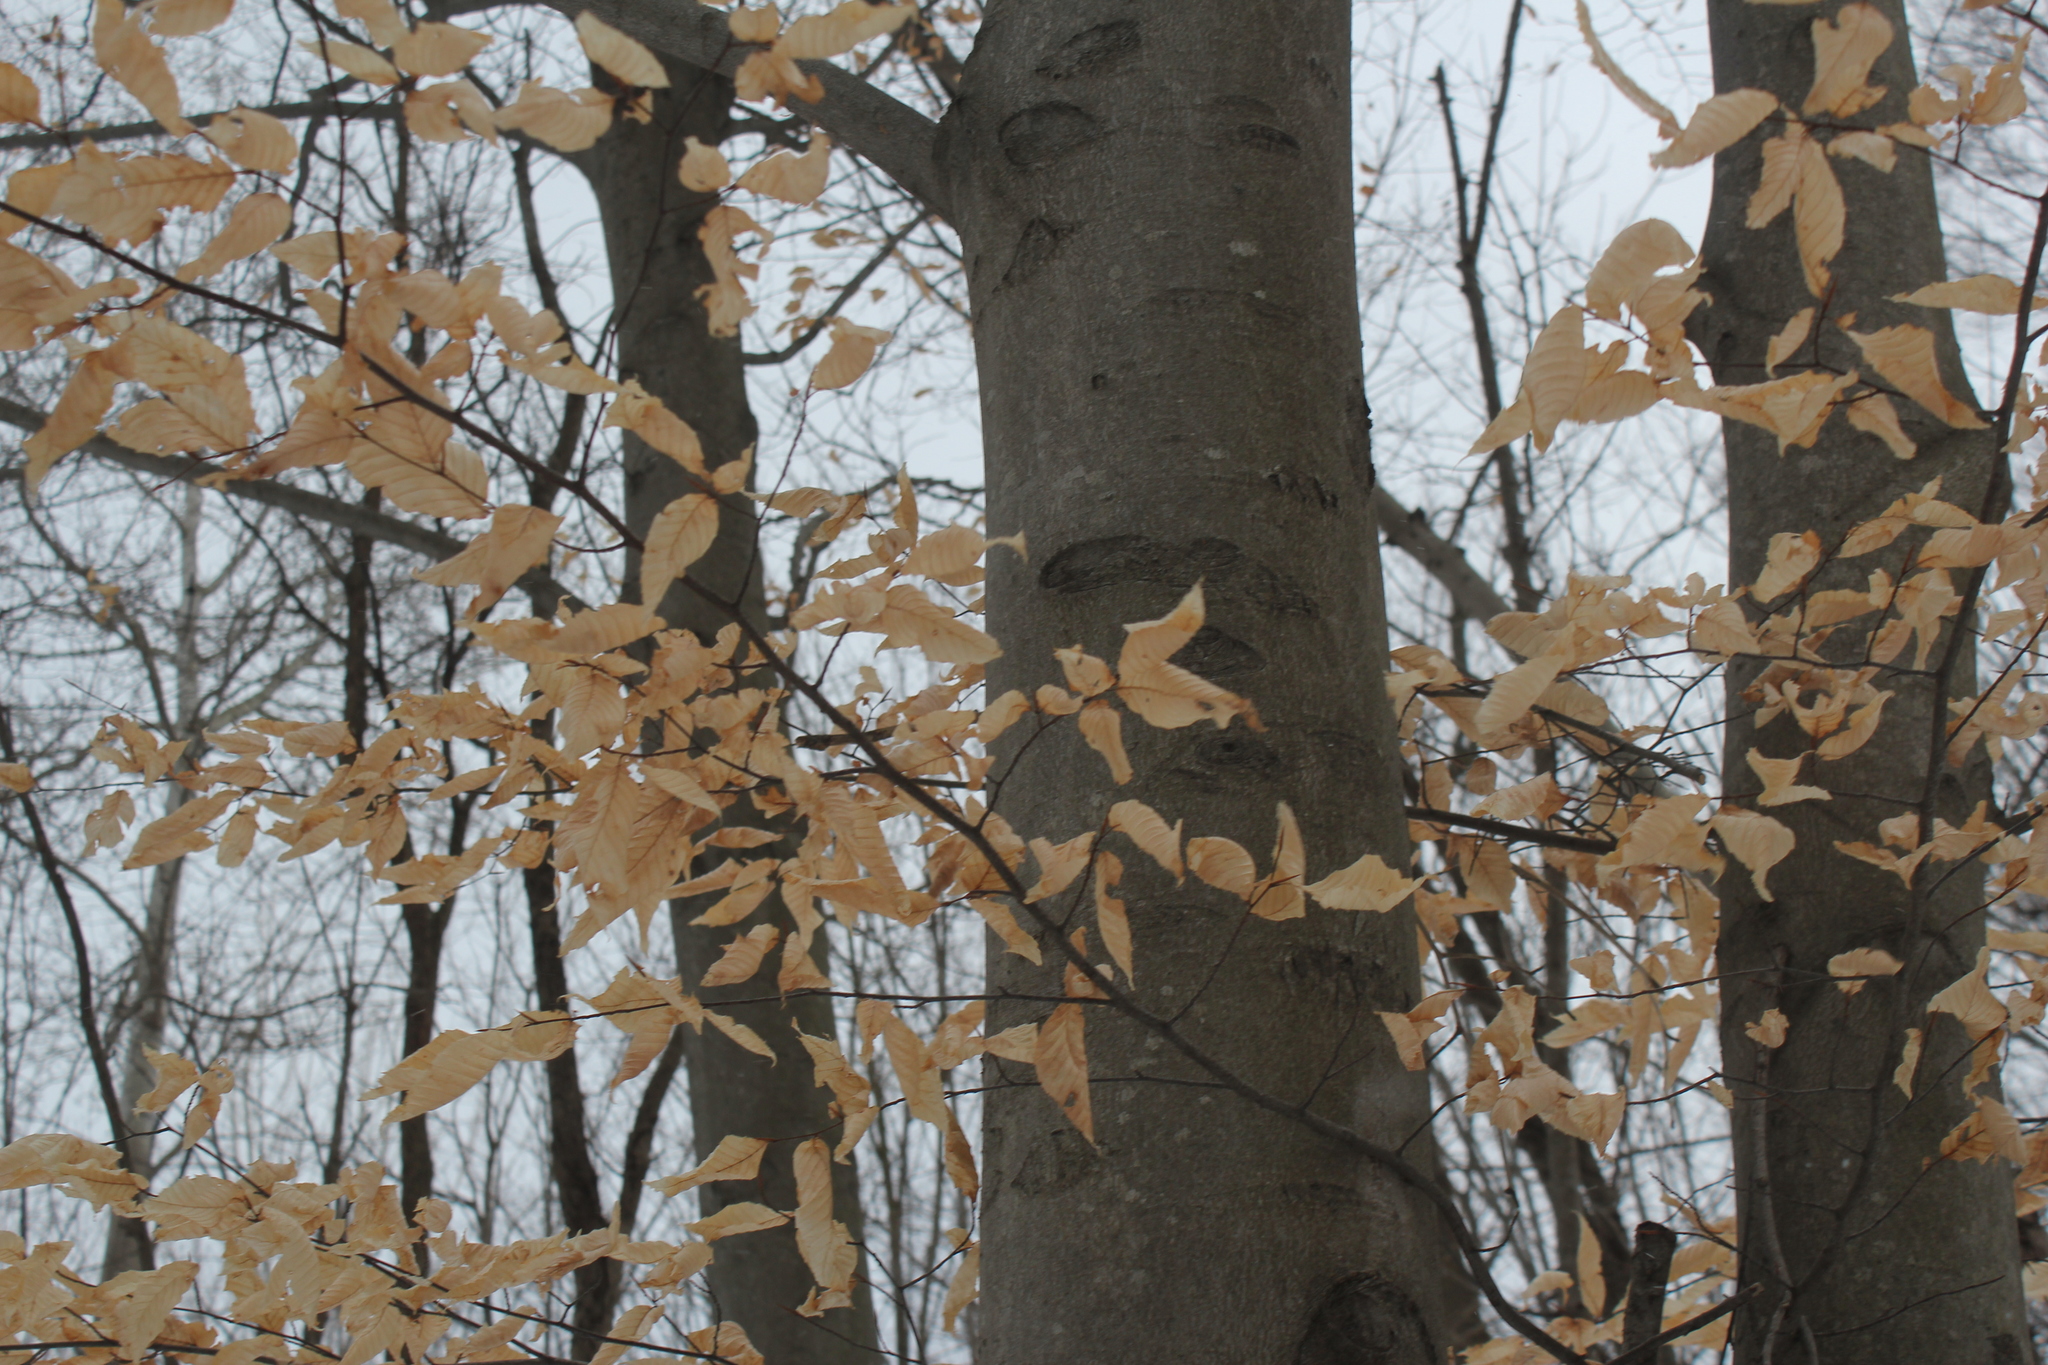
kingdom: Plantae
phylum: Tracheophyta
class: Magnoliopsida
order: Fagales
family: Fagaceae
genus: Fagus
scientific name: Fagus grandifolia
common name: American beech
